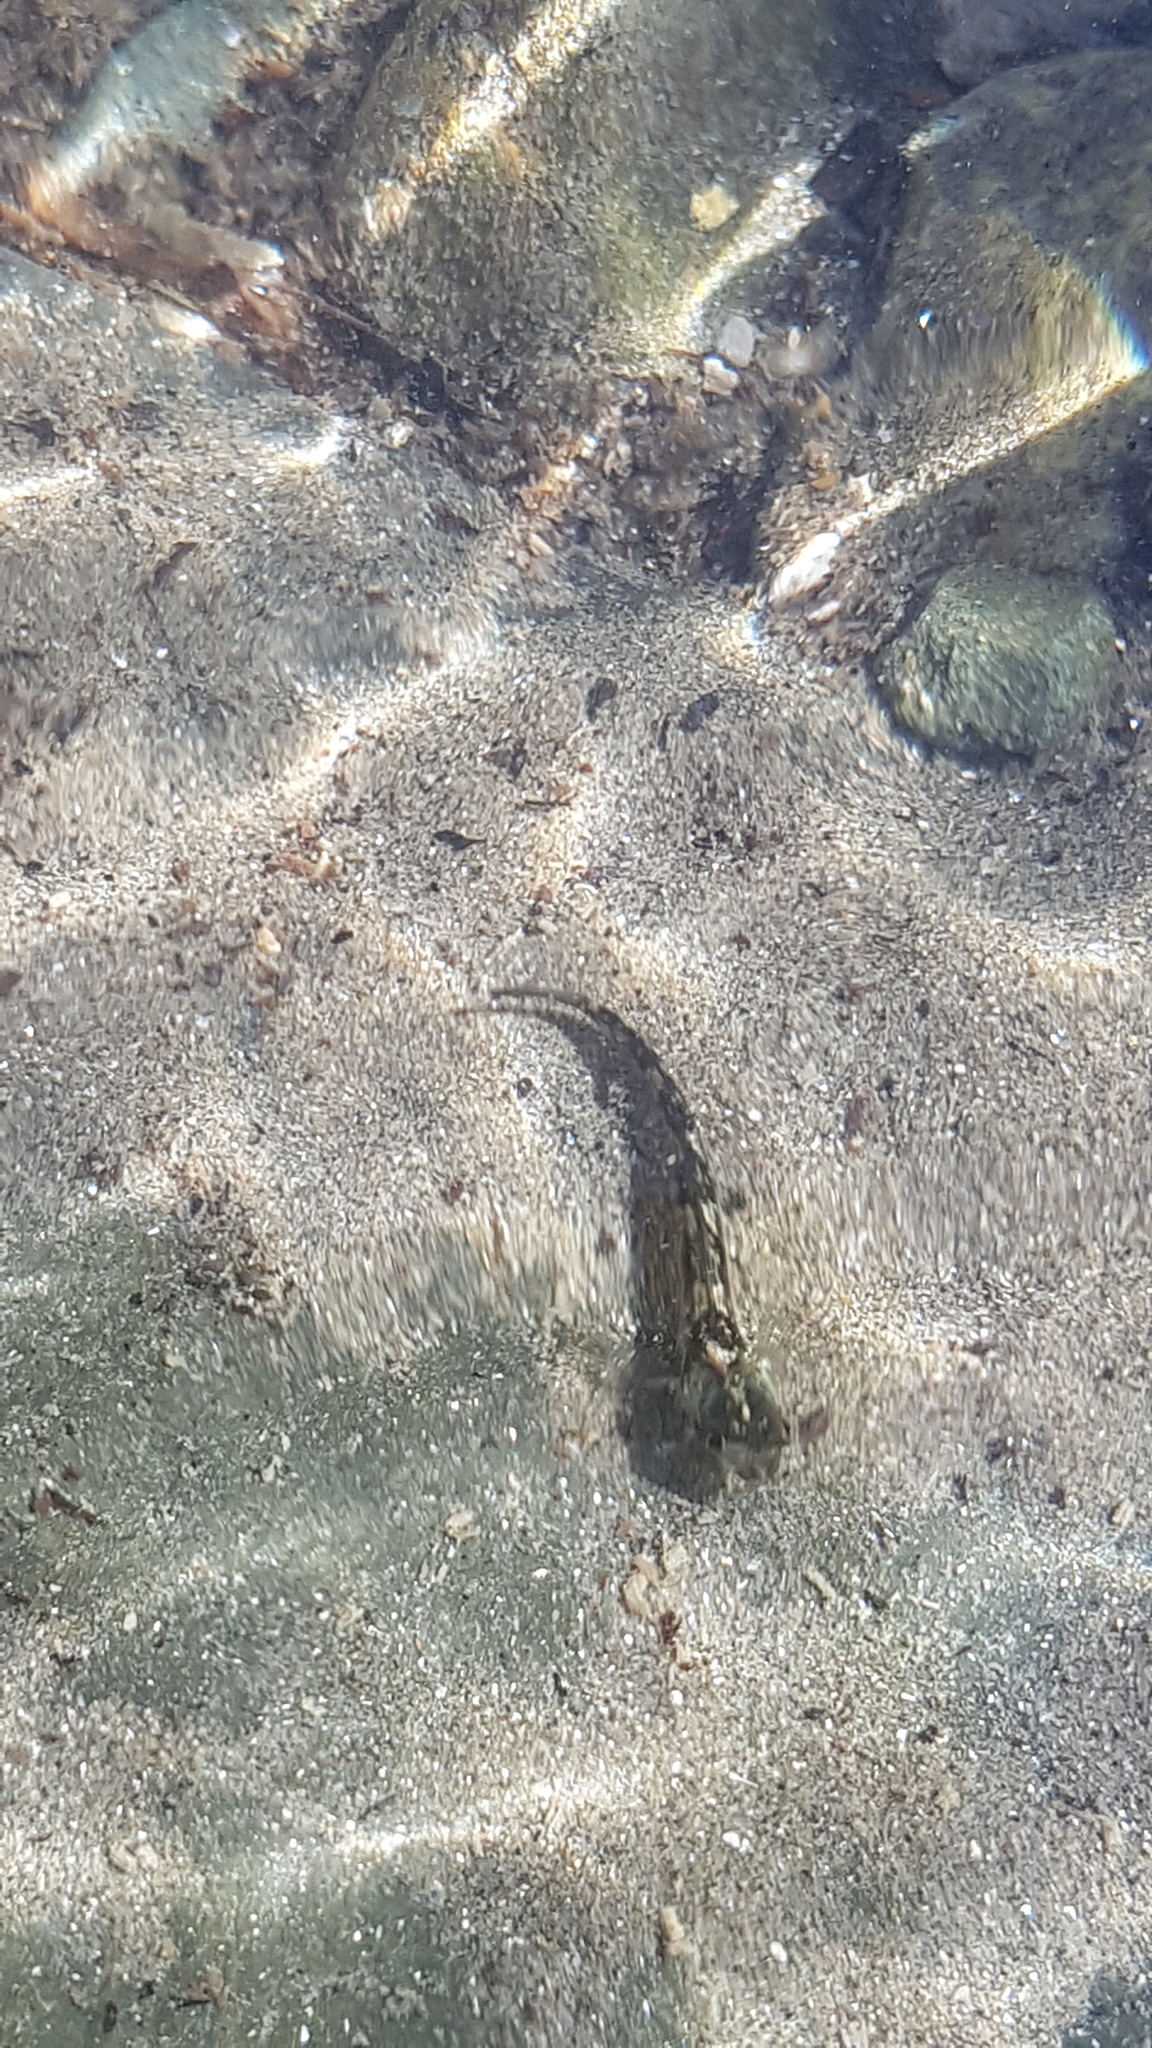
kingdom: Animalia
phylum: Chordata
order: Perciformes
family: Tripterygiidae
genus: Forsterygion
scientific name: Forsterygion lapillum
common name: Common triplefin
